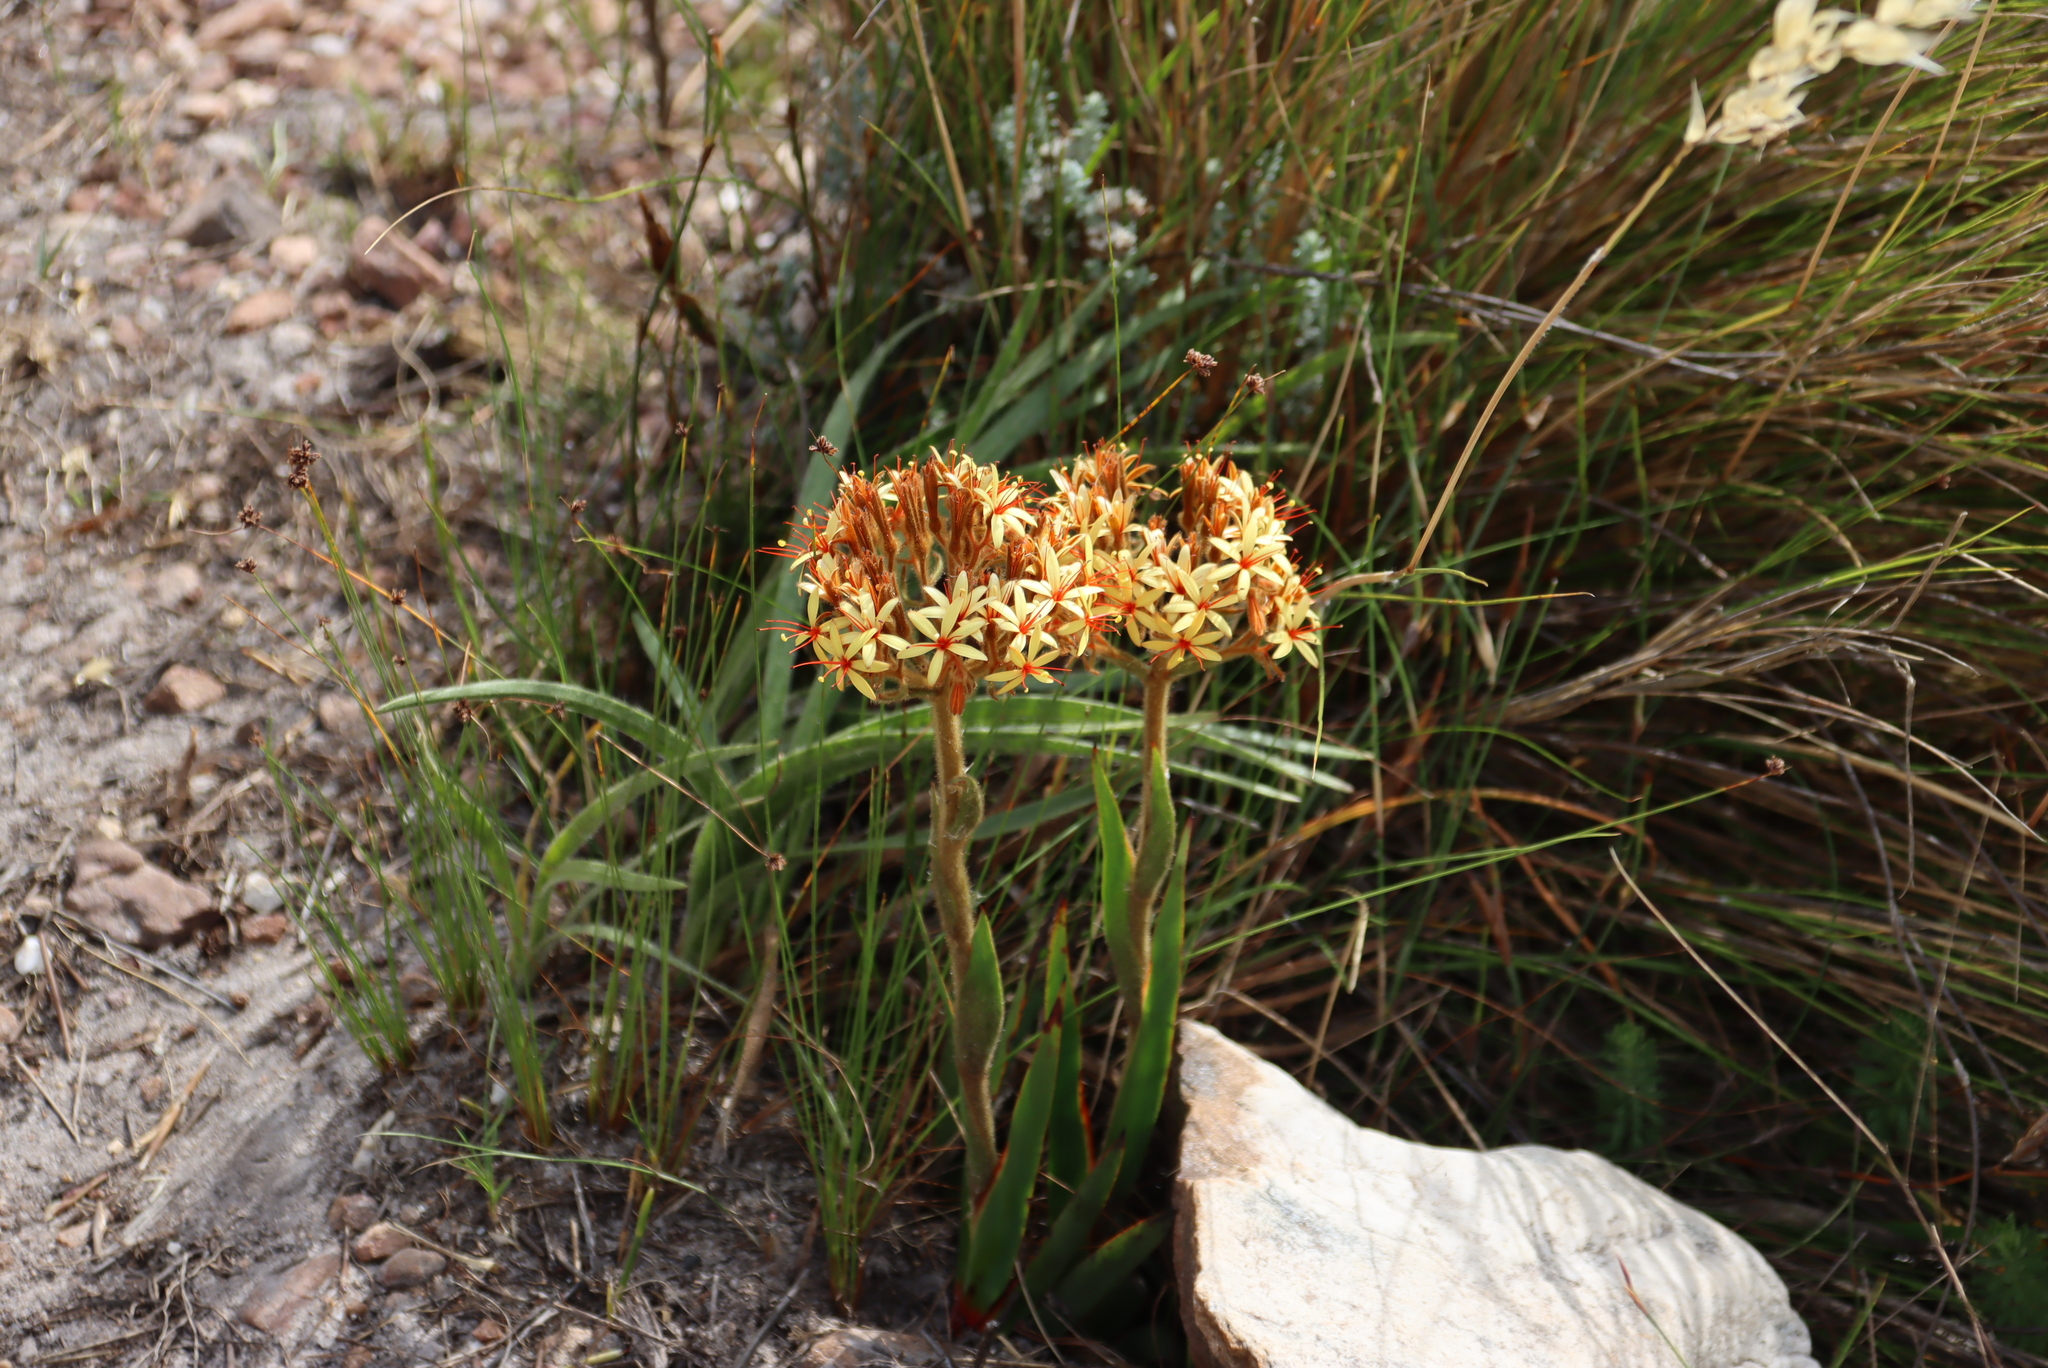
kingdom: Plantae
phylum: Tracheophyta
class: Liliopsida
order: Commelinales
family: Haemodoraceae
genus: Dilatris
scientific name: Dilatris viscosa
